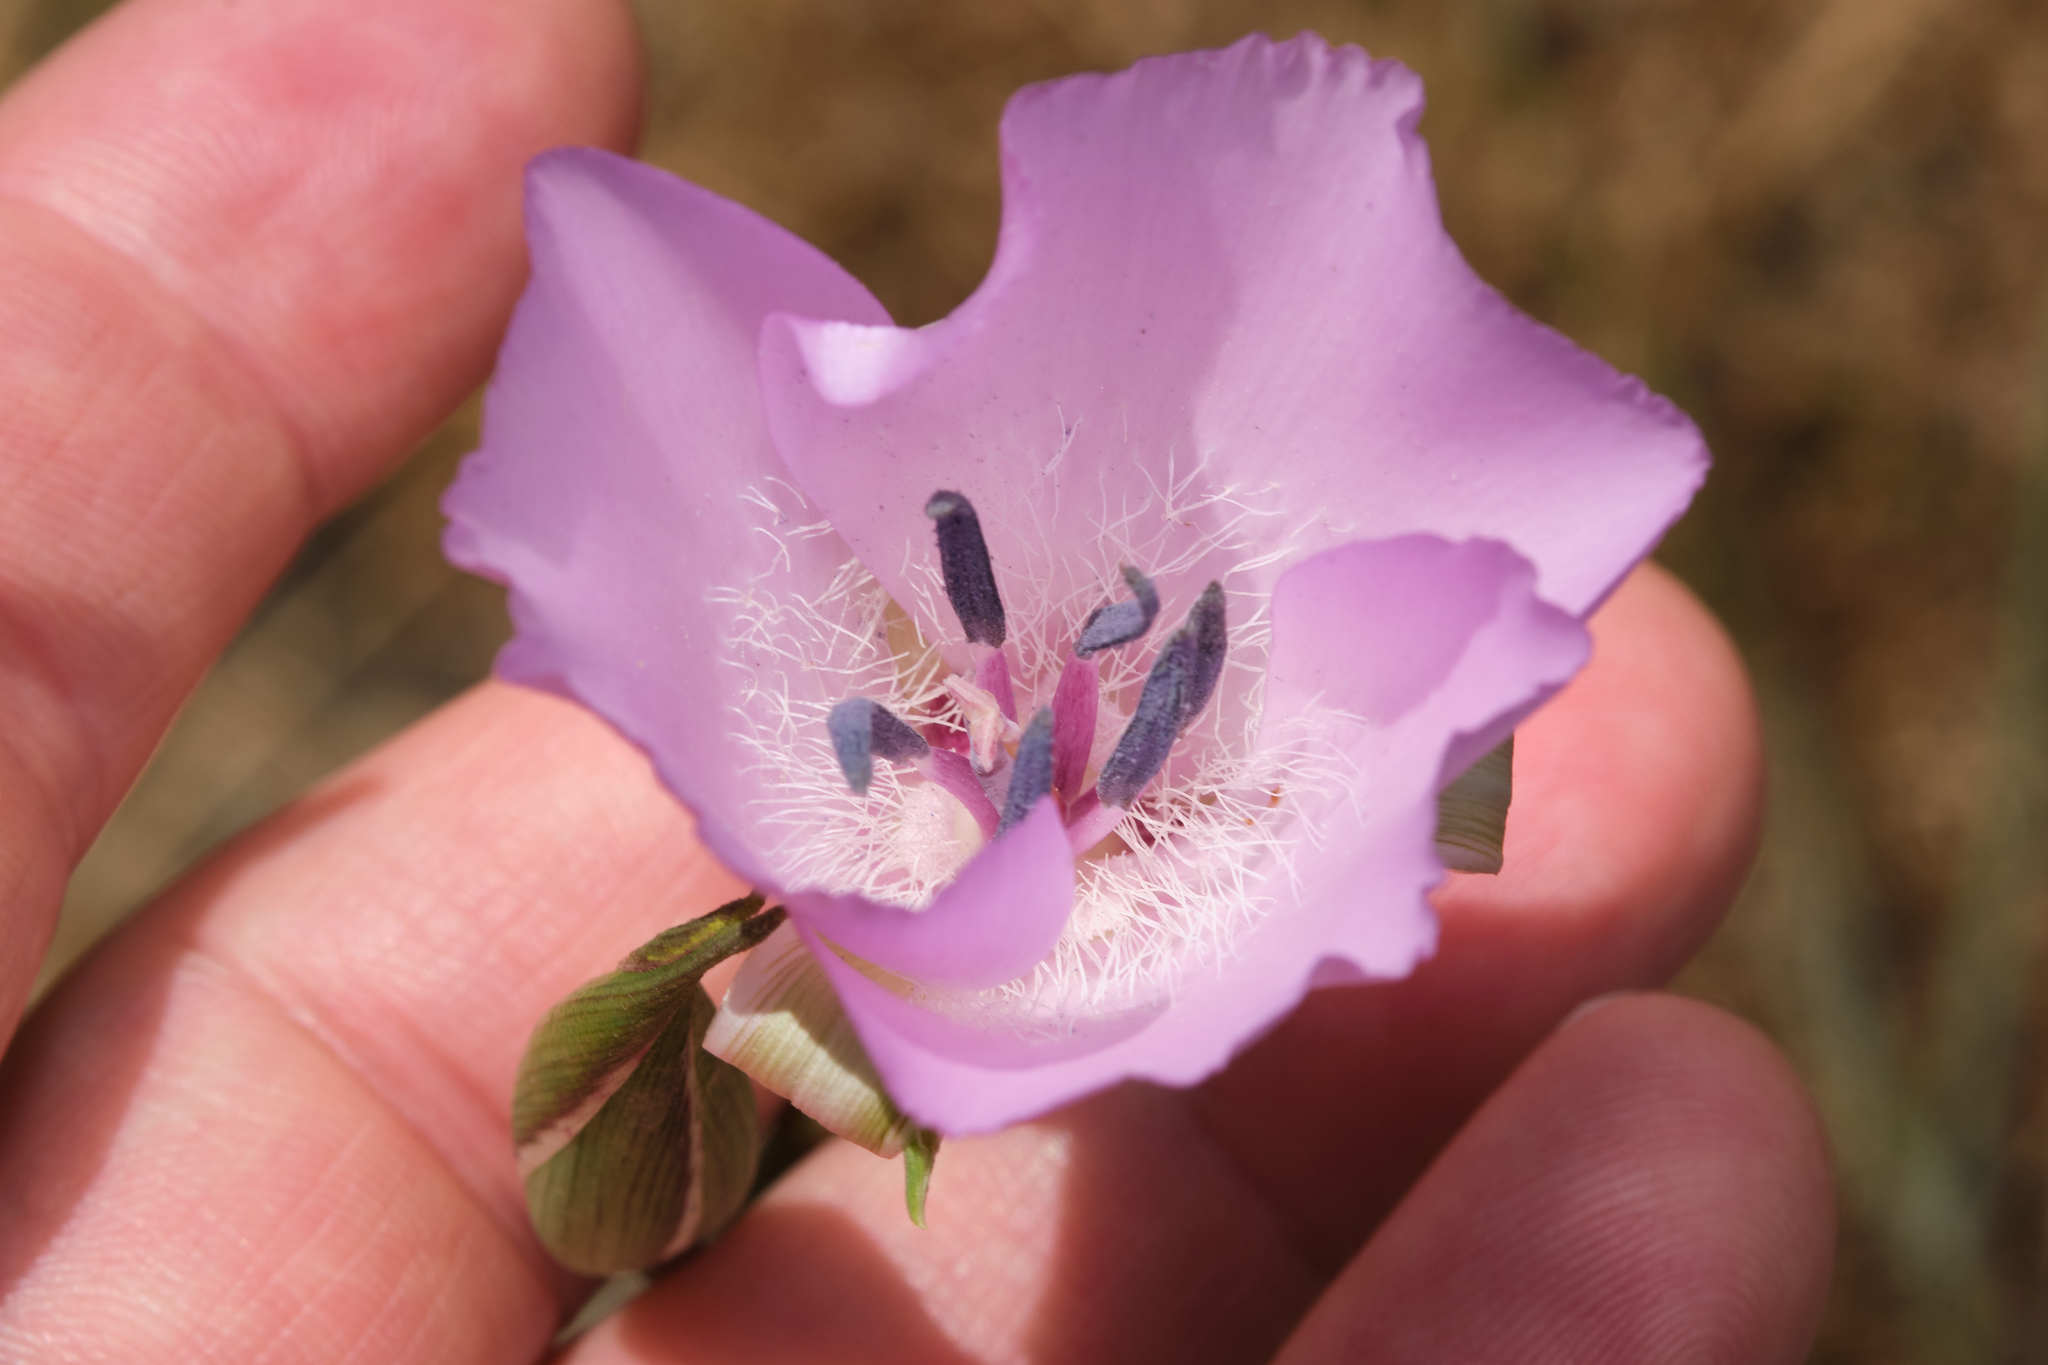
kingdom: Plantae
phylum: Tracheophyta
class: Liliopsida
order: Liliales
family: Liliaceae
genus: Calochortus
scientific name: Calochortus splendens
